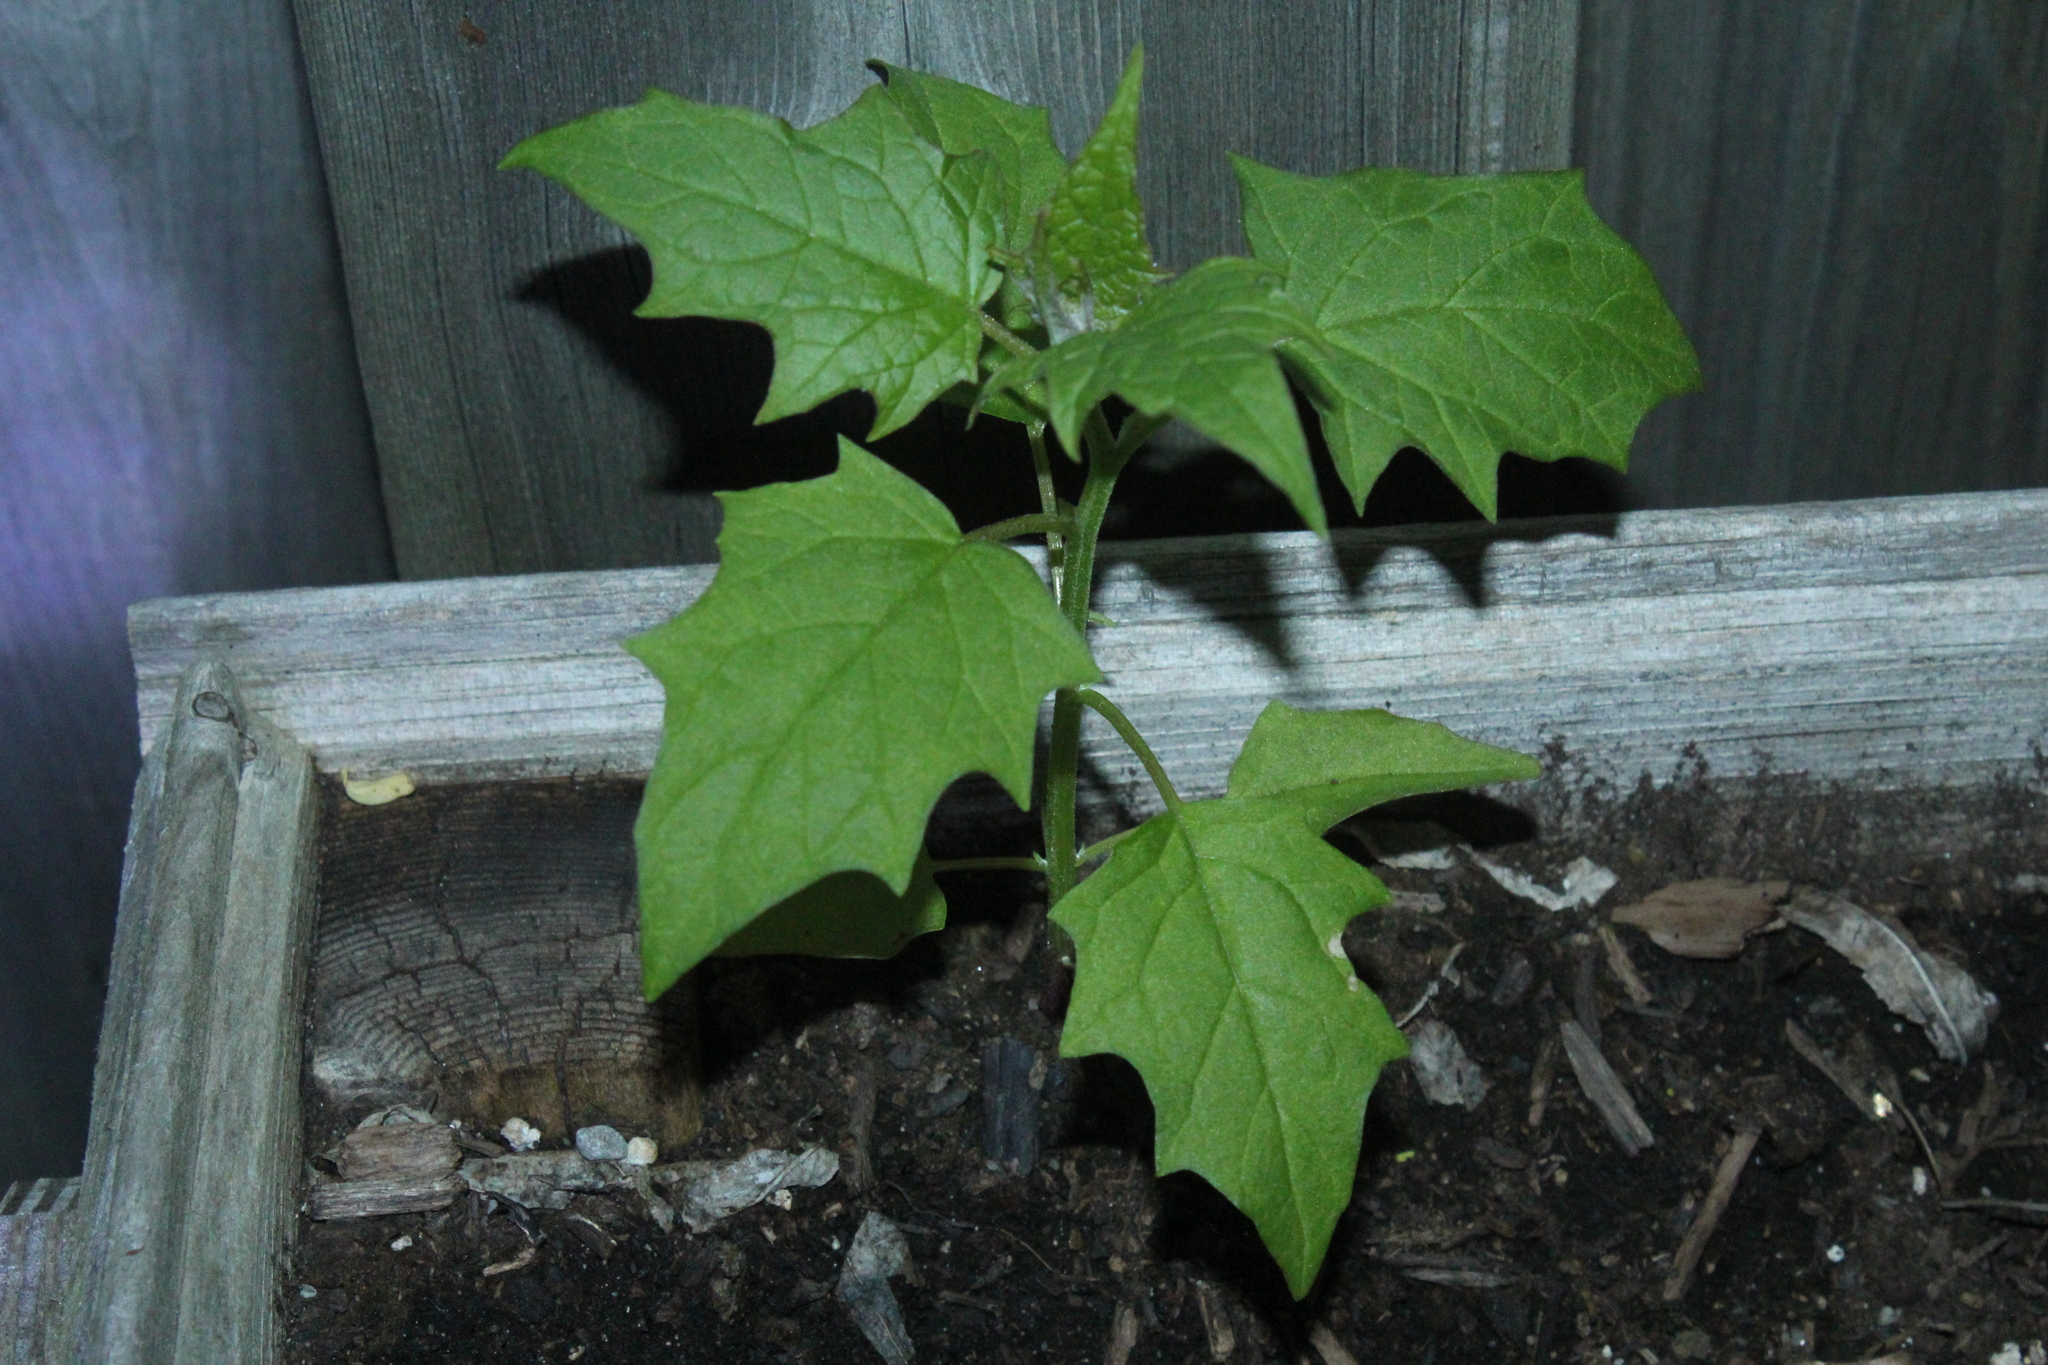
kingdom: Plantae
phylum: Tracheophyta
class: Magnoliopsida
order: Solanales
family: Solanaceae
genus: Datura
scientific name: Datura stramonium
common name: Thorn-apple
